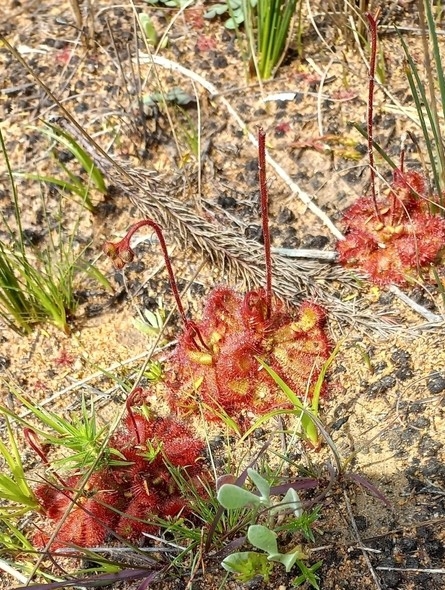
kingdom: Plantae
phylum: Tracheophyta
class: Magnoliopsida
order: Caryophyllales
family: Droseraceae
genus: Drosera
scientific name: Drosera trinervia
